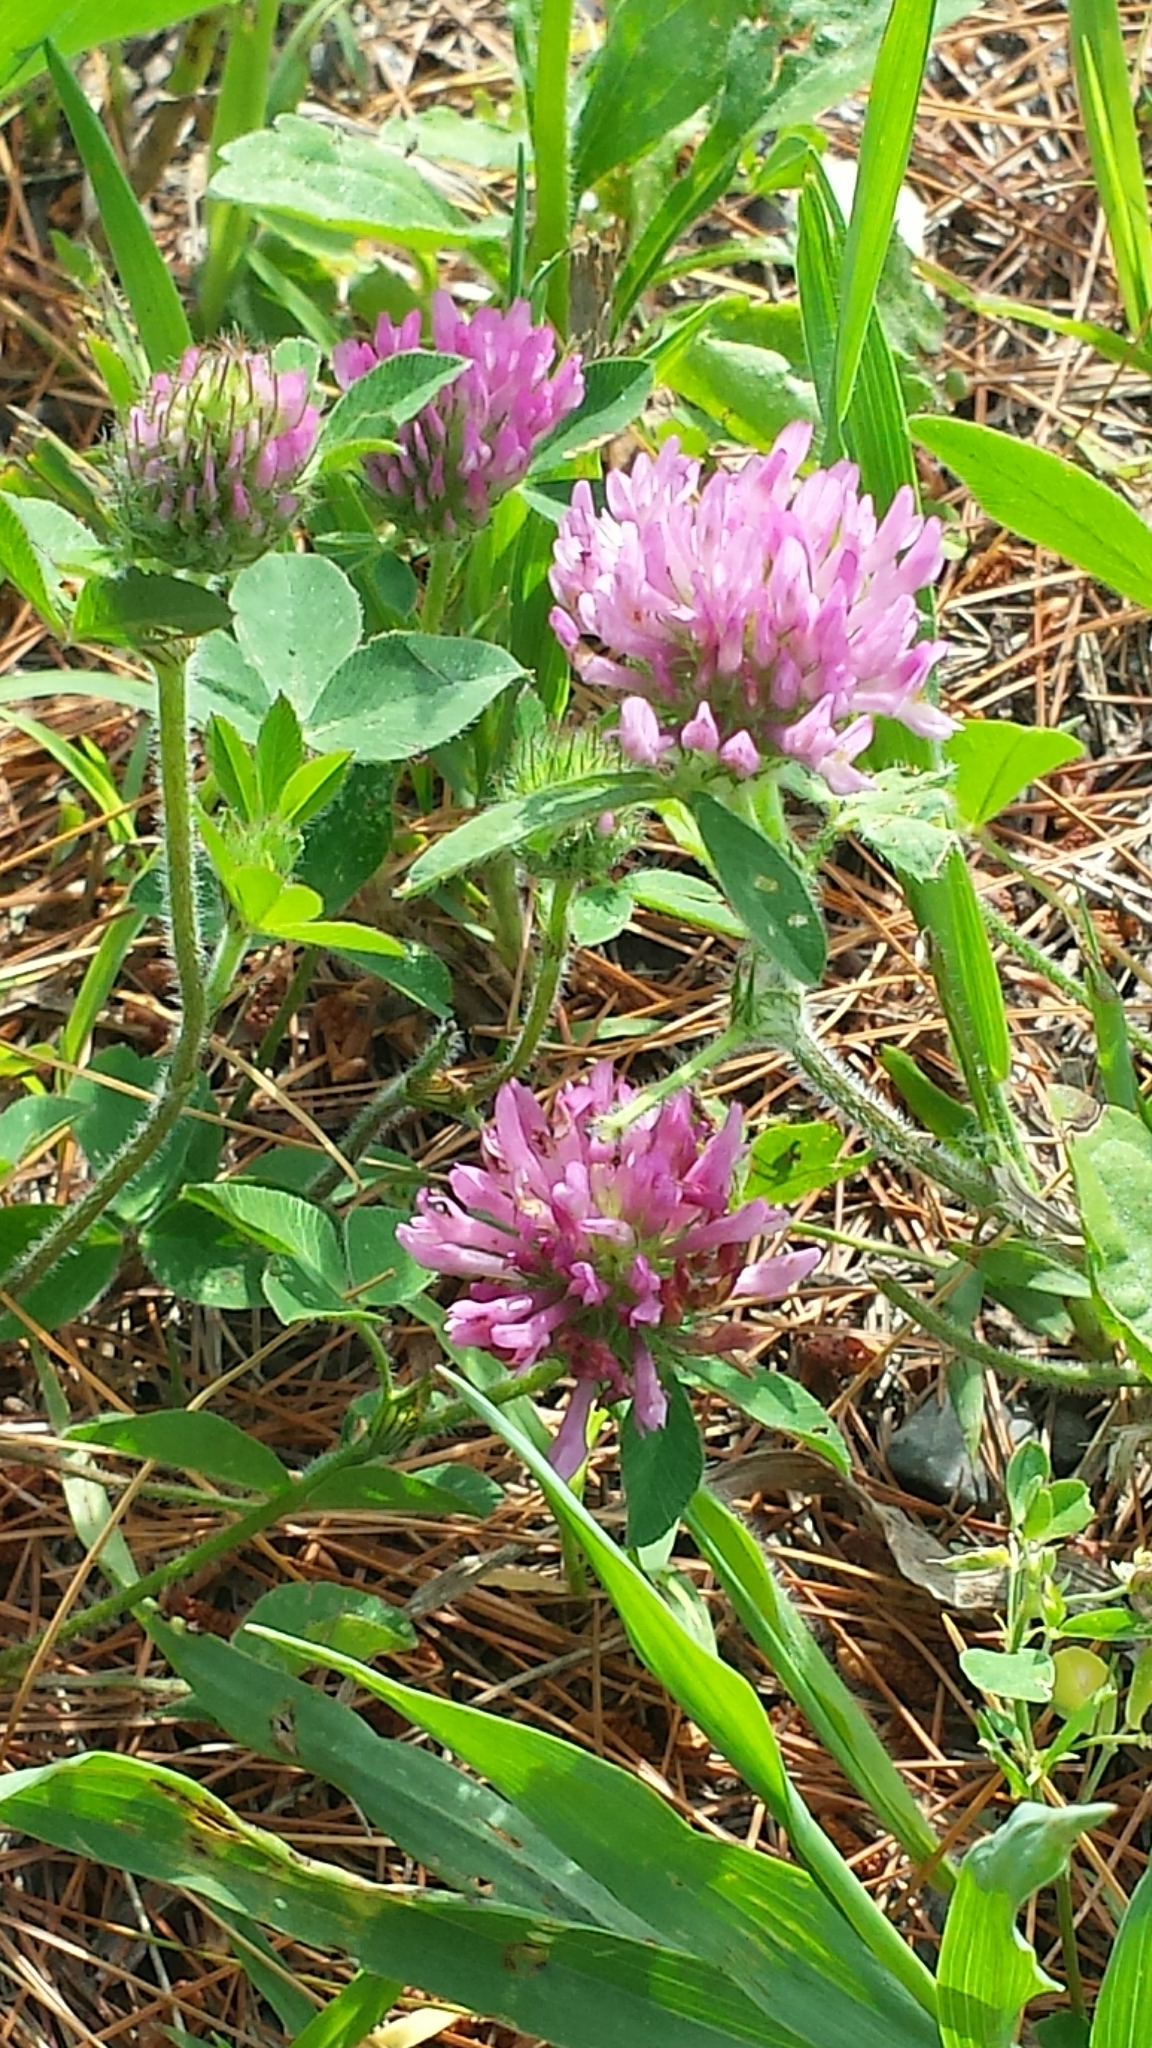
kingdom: Plantae
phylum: Tracheophyta
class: Magnoliopsida
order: Fabales
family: Fabaceae
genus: Trifolium
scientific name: Trifolium pratense
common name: Red clover
